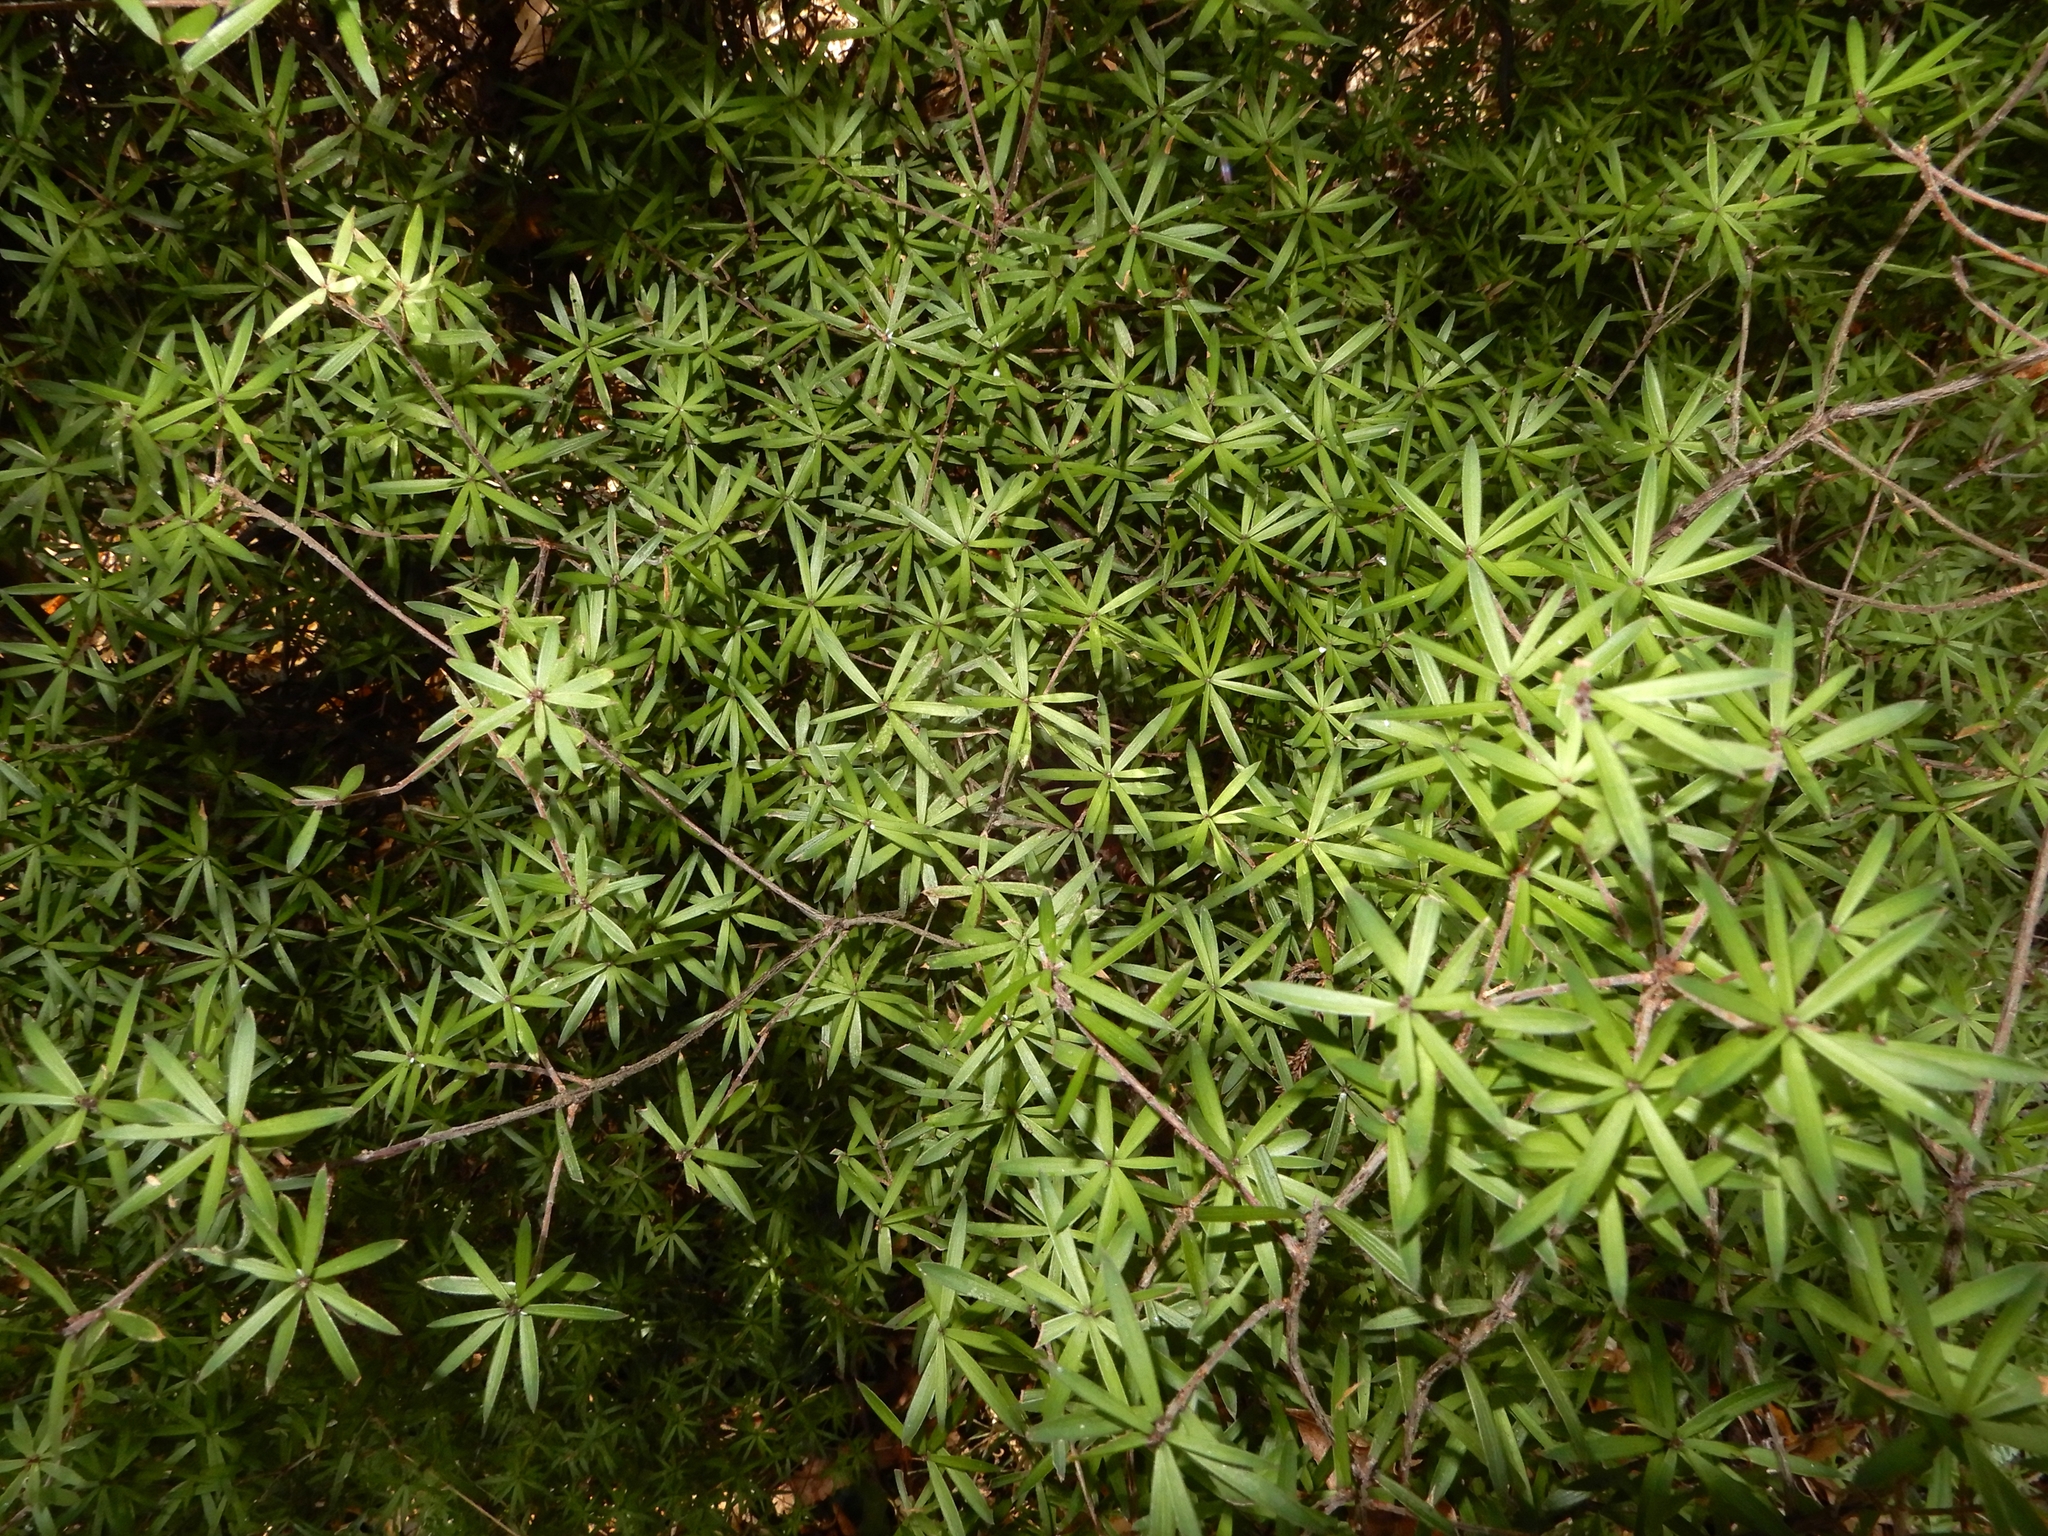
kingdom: Plantae
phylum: Tracheophyta
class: Magnoliopsida
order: Ericales
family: Ericaceae
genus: Leucopogon
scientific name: Leucopogon fasciculatus
